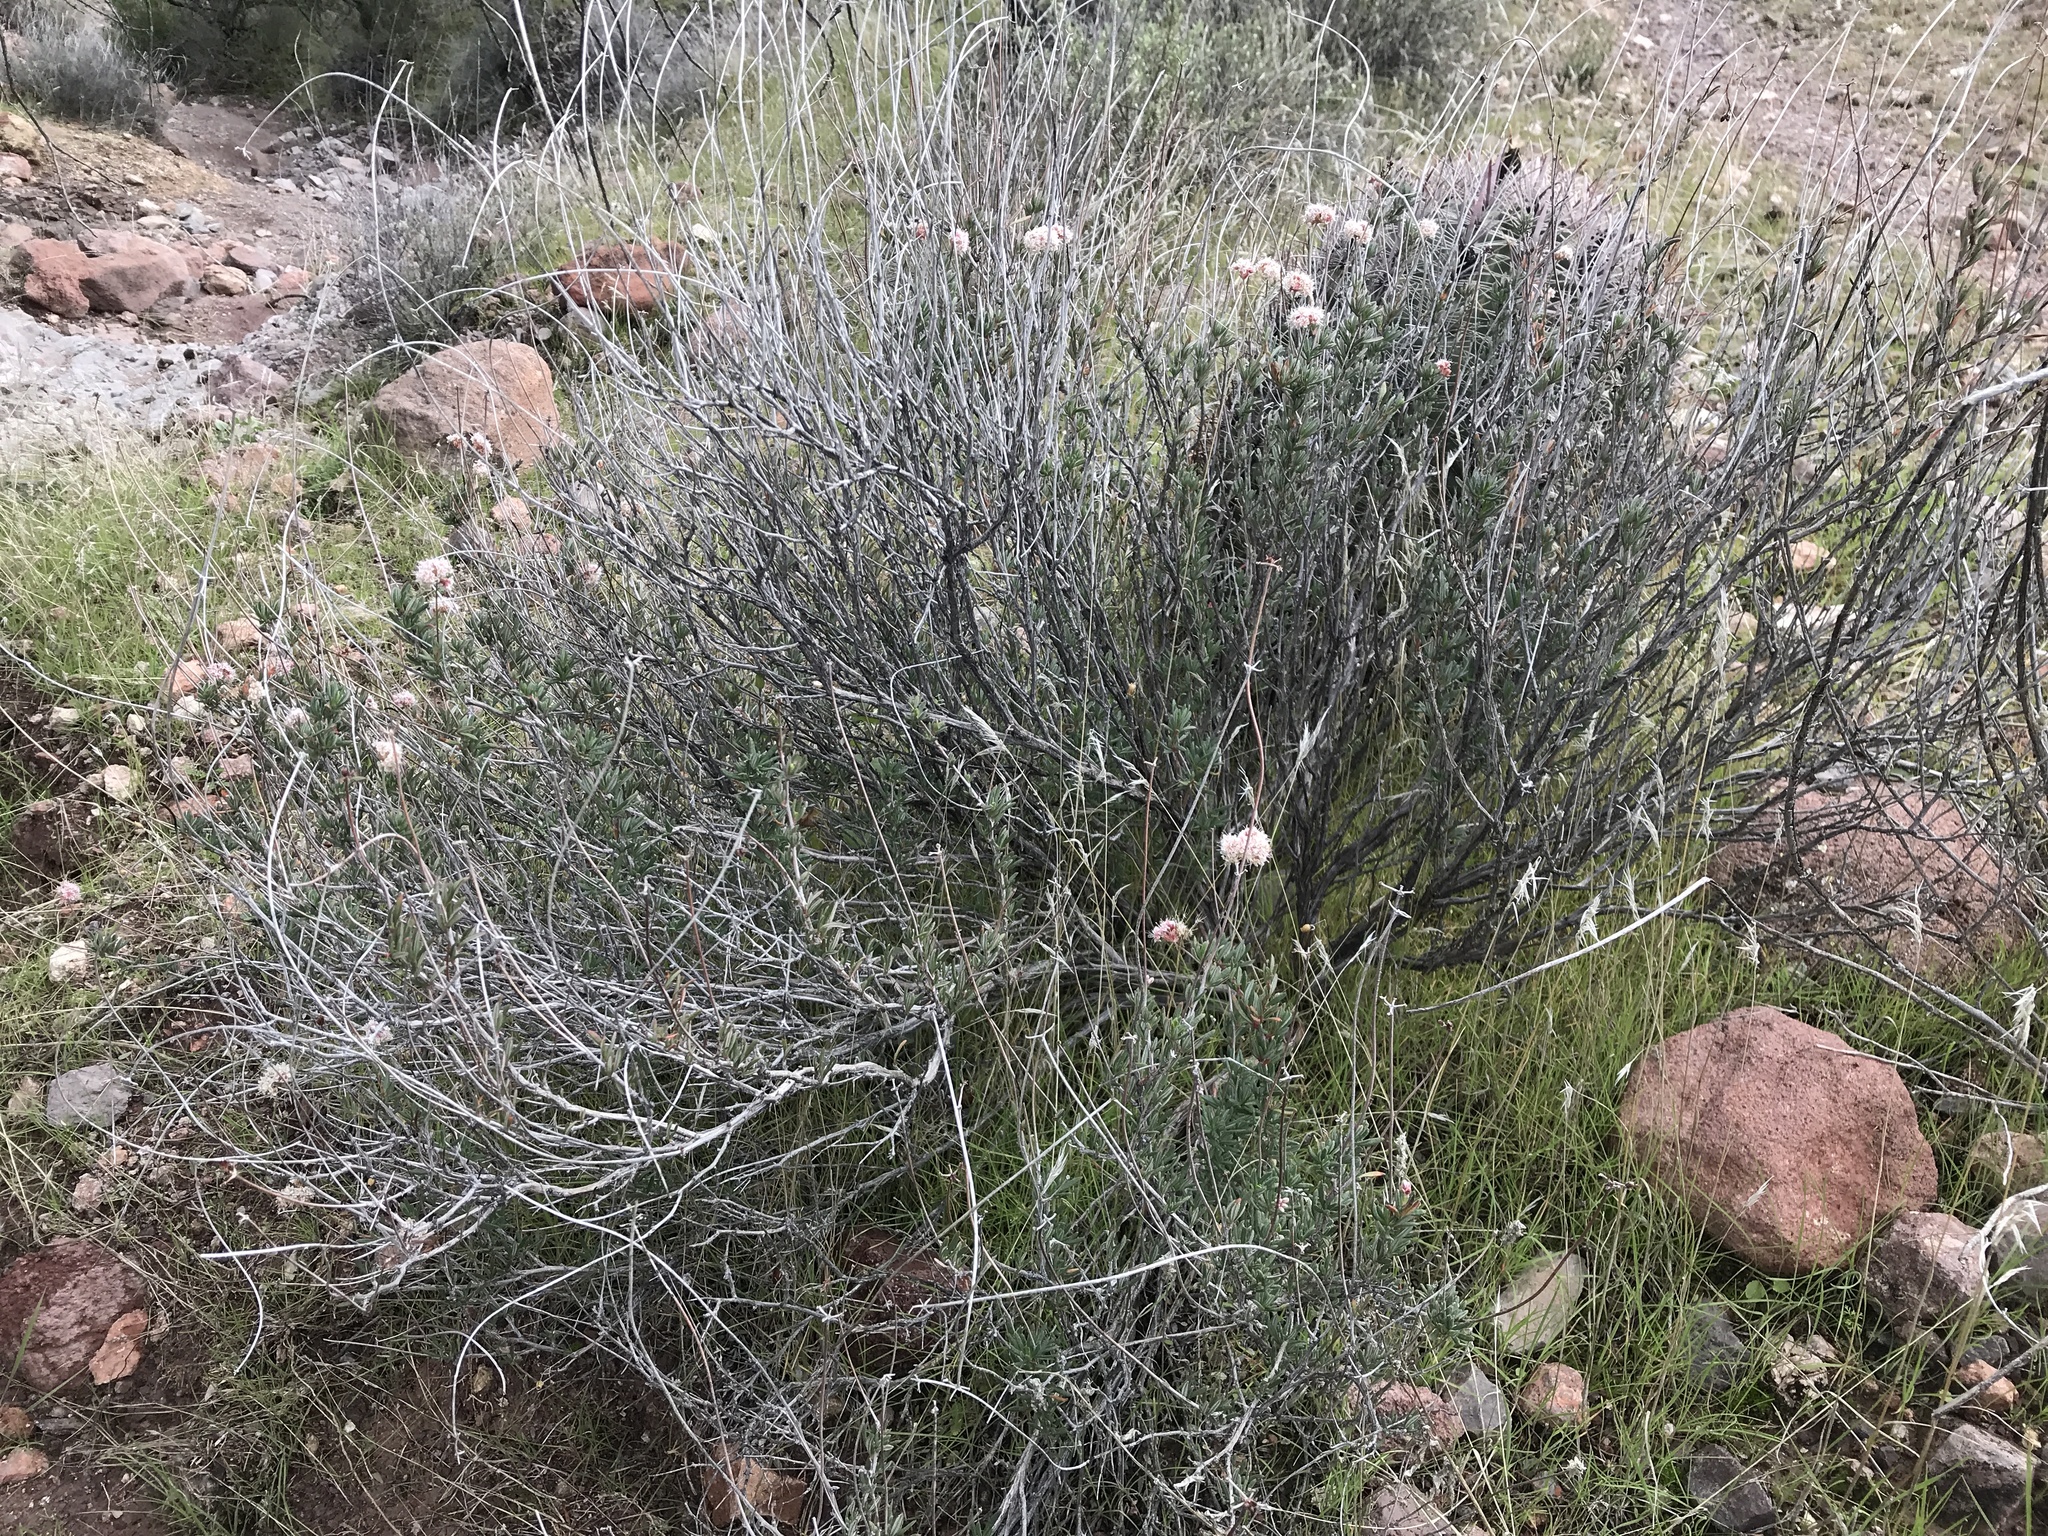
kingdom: Plantae
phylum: Tracheophyta
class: Magnoliopsida
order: Caryophyllales
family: Polygonaceae
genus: Eriogonum
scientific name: Eriogonum wrightii
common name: Bastard-sage
